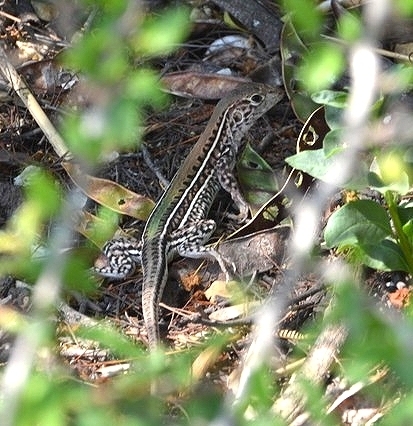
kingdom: Animalia
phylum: Chordata
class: Squamata
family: Teiidae
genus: Teius
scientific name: Teius suquiensis
